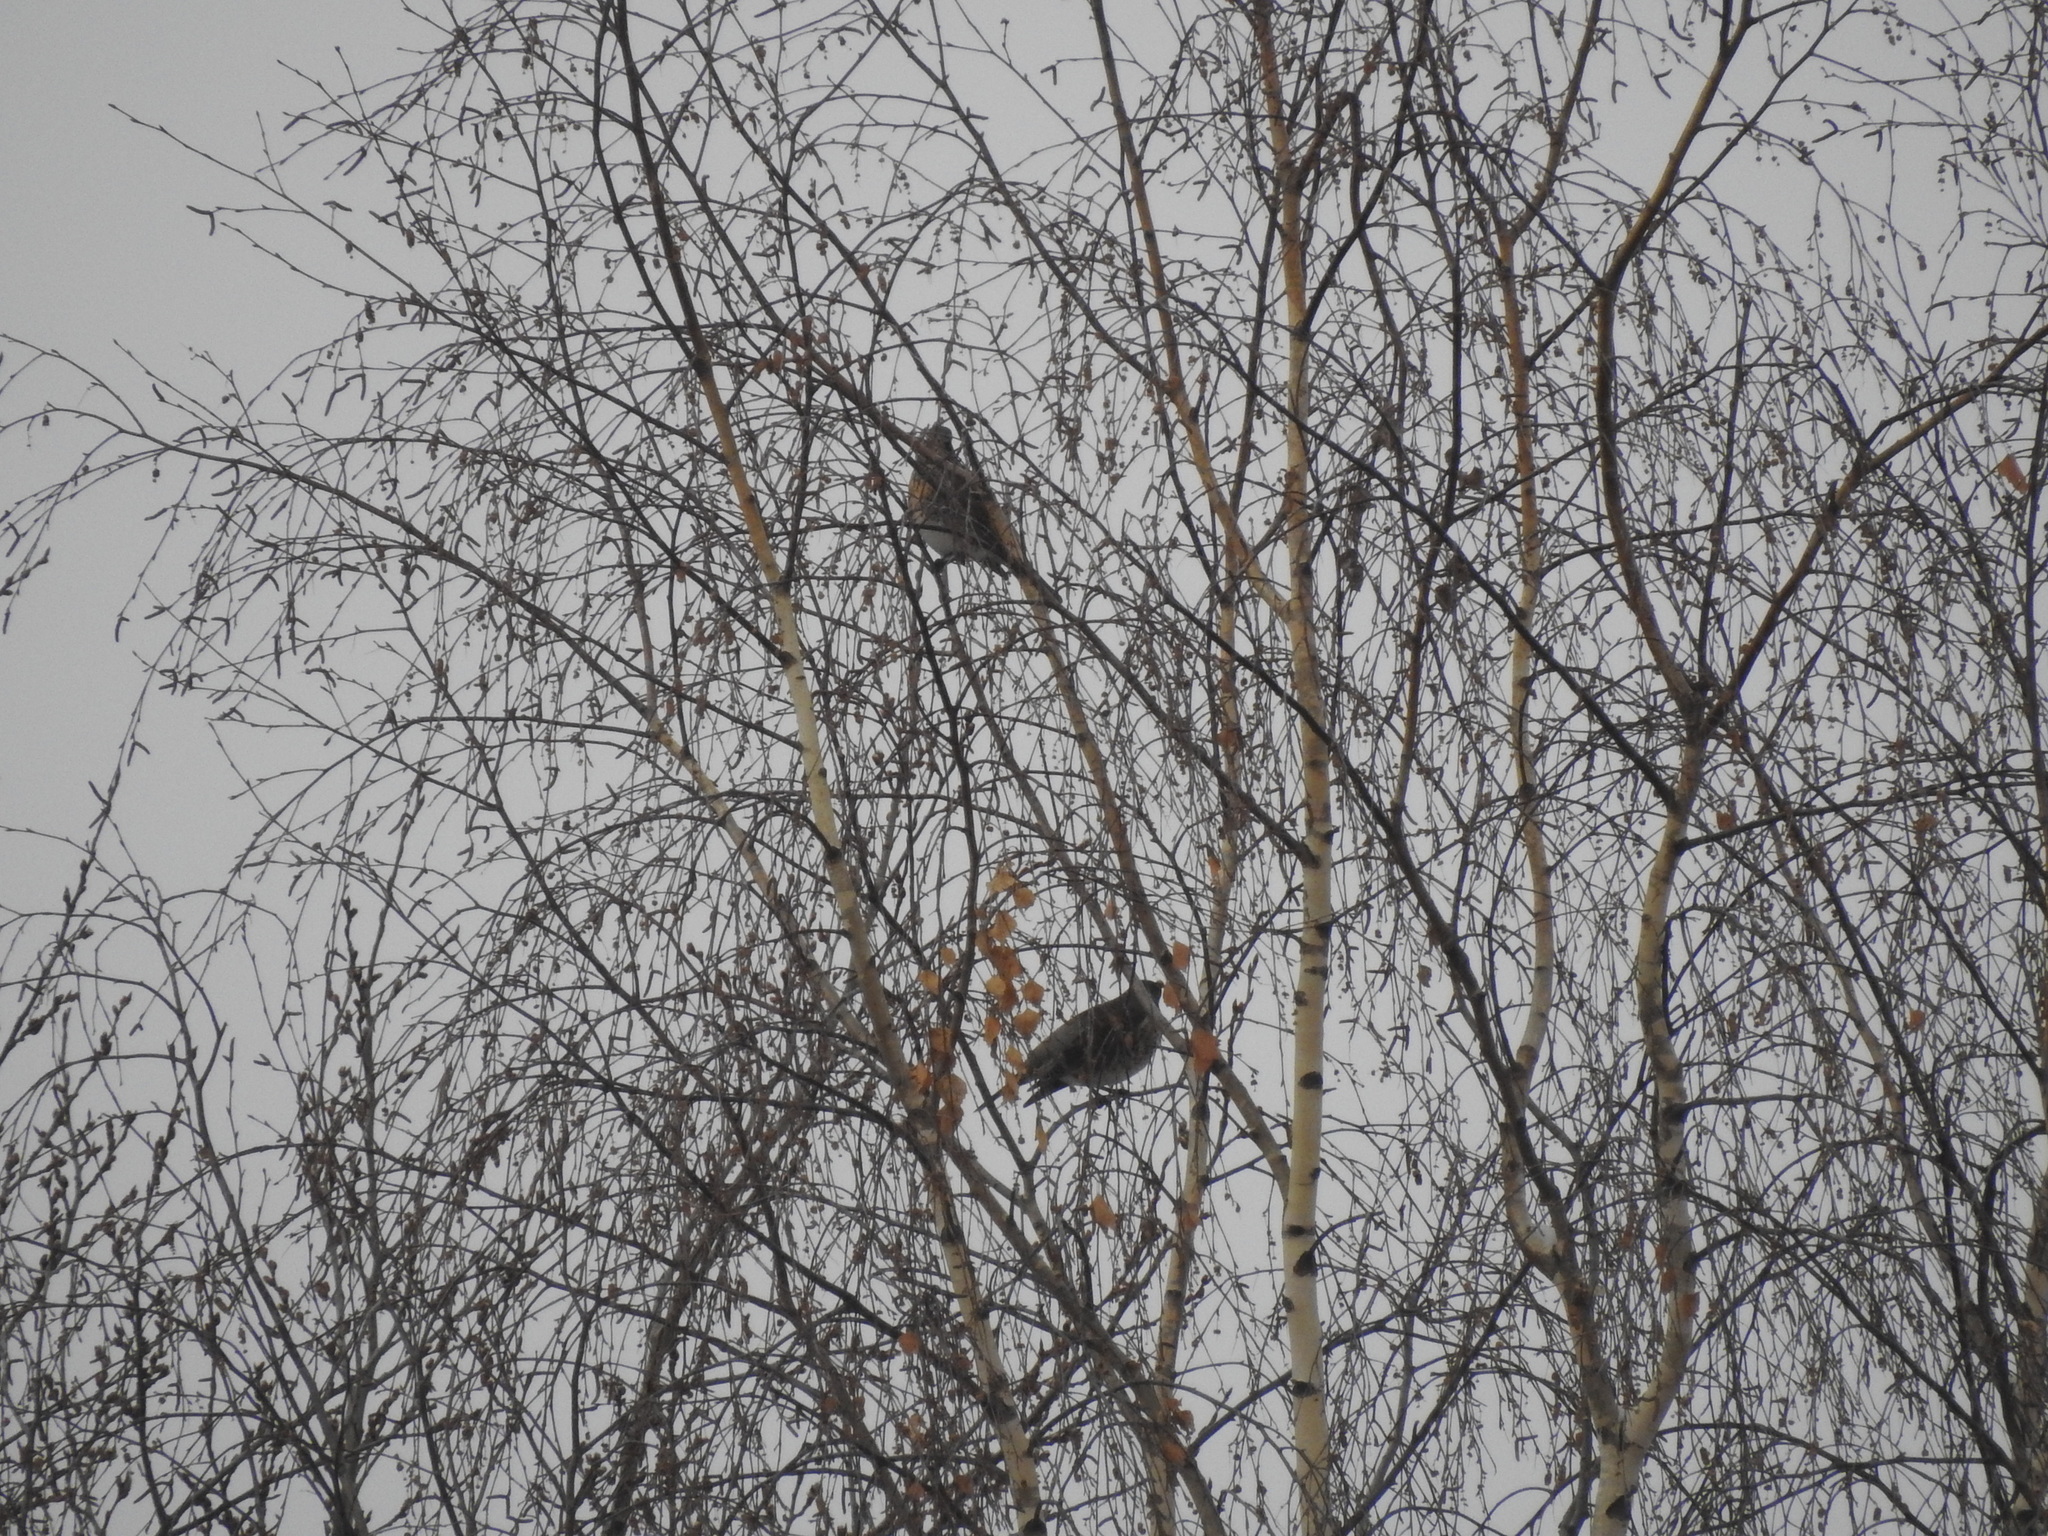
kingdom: Animalia
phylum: Chordata
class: Aves
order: Passeriformes
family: Turdidae
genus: Turdus
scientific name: Turdus pilaris
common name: Fieldfare
